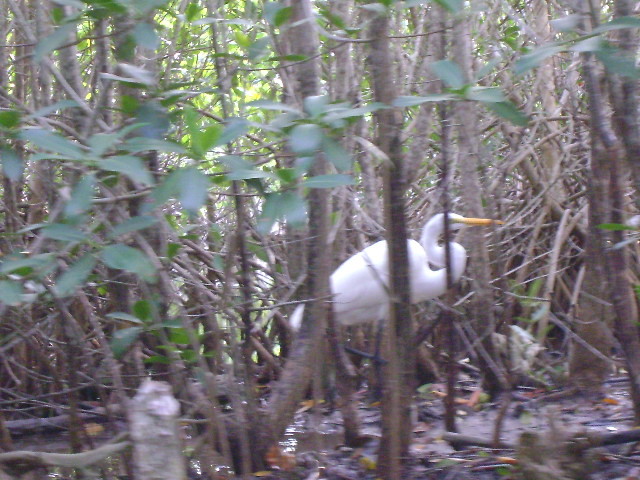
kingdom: Animalia
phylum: Chordata
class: Aves
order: Pelecaniformes
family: Ardeidae
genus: Ardea
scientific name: Ardea alba
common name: Great egret
